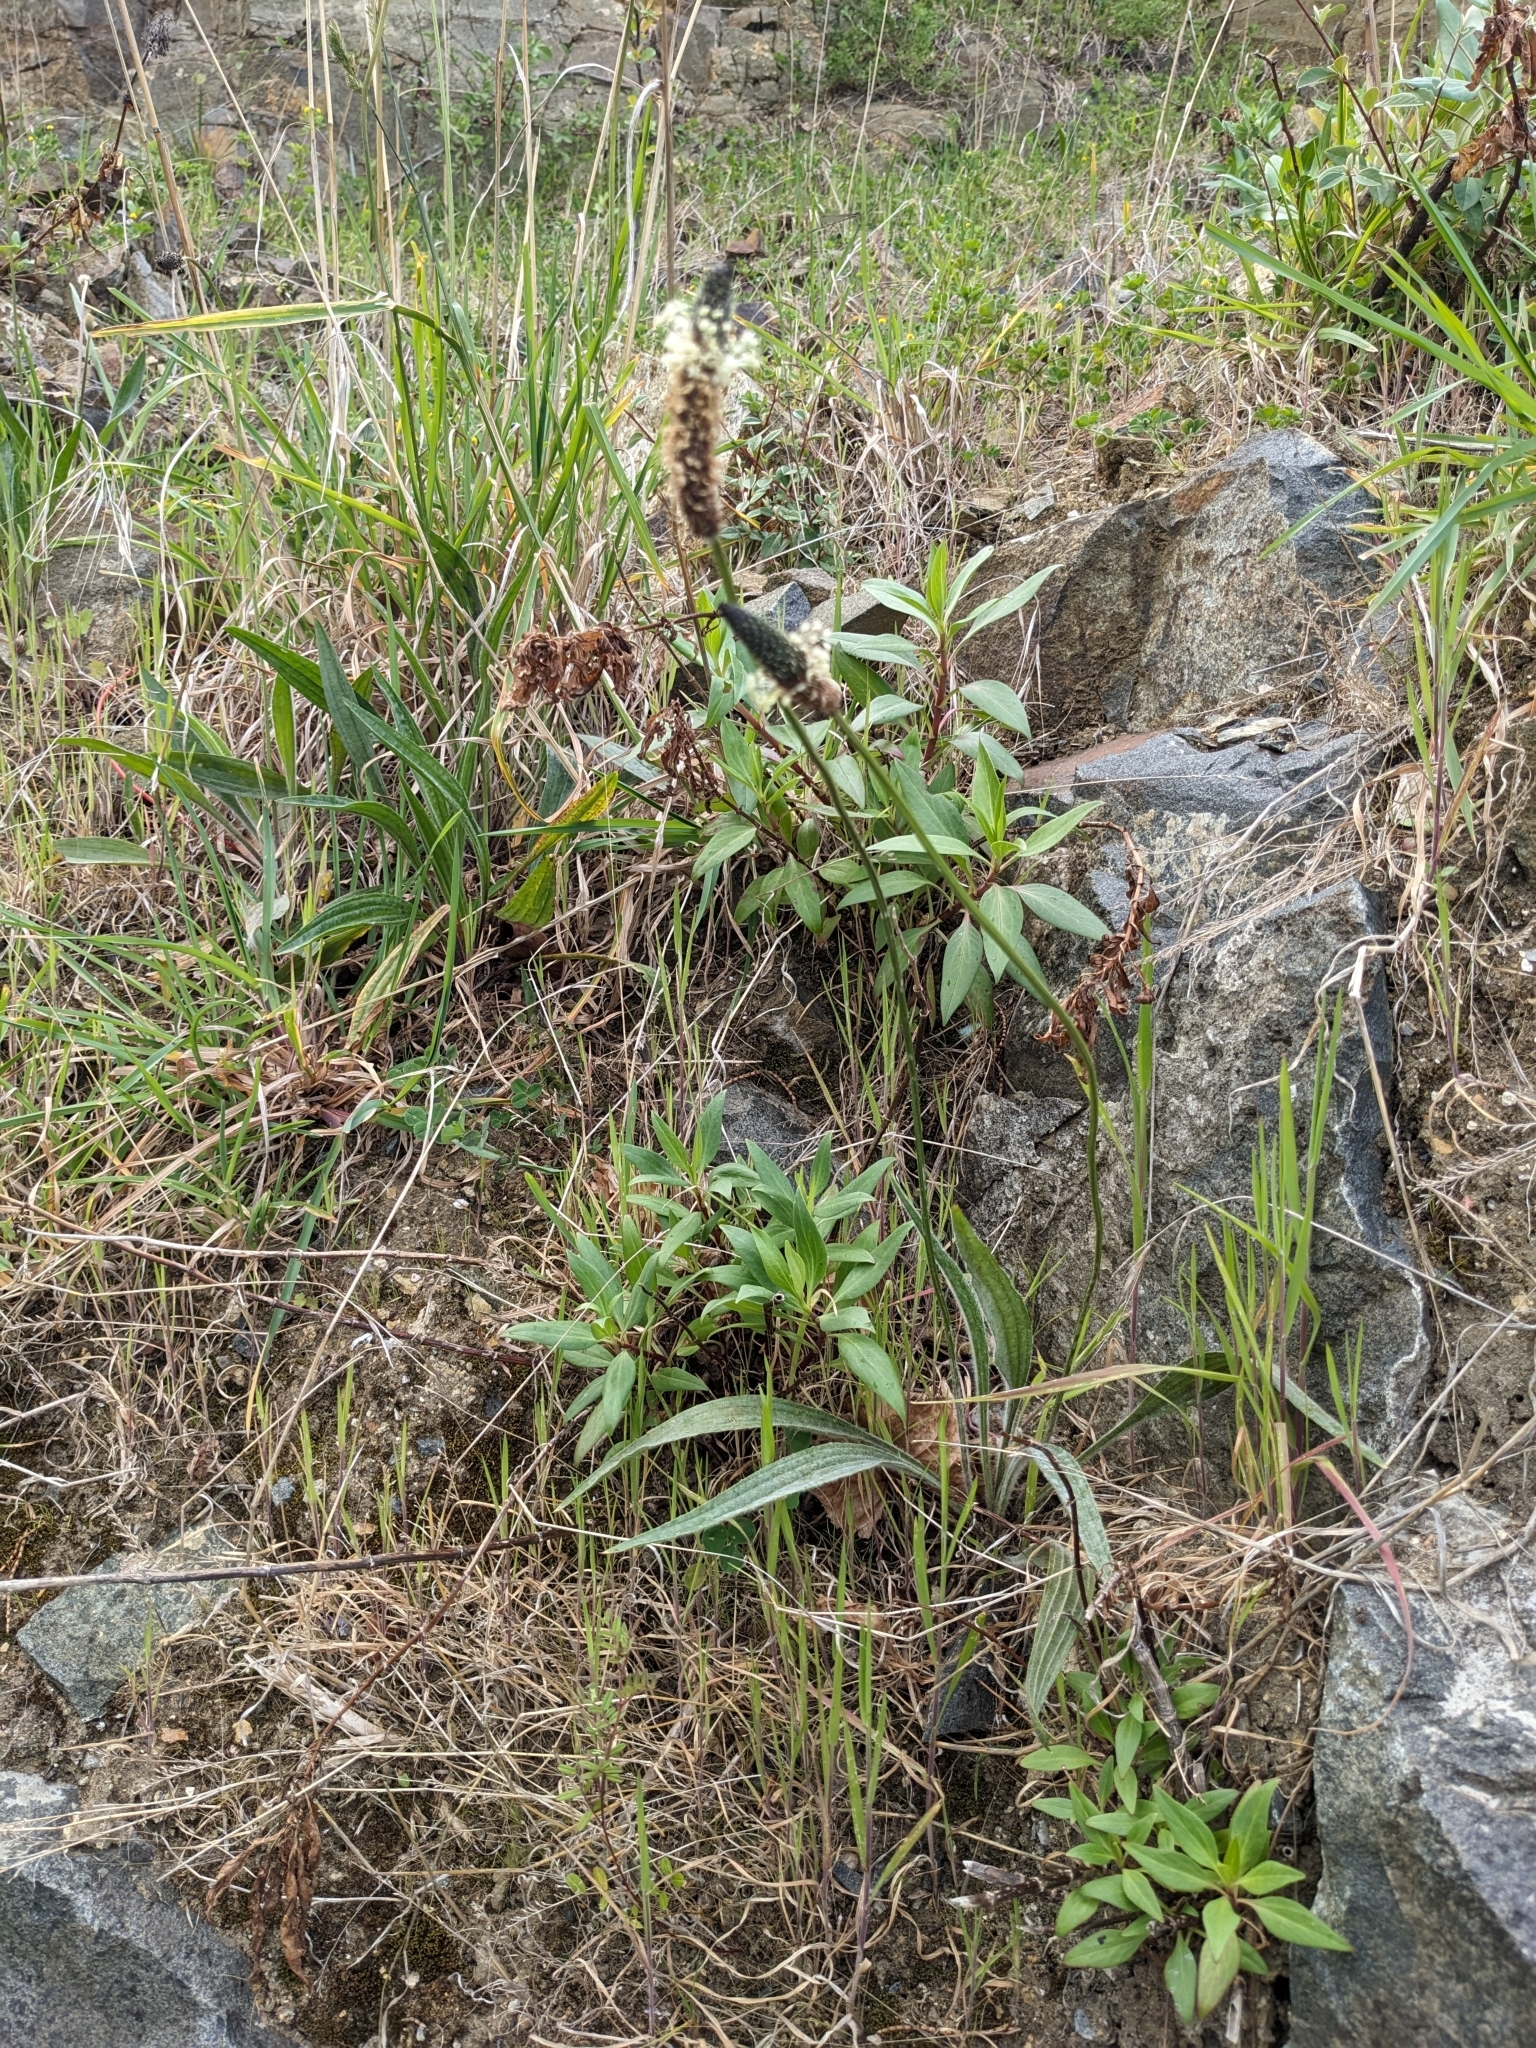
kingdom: Plantae
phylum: Tracheophyta
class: Magnoliopsida
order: Lamiales
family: Plantaginaceae
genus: Plantago
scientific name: Plantago lanceolata
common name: Ribwort plantain
